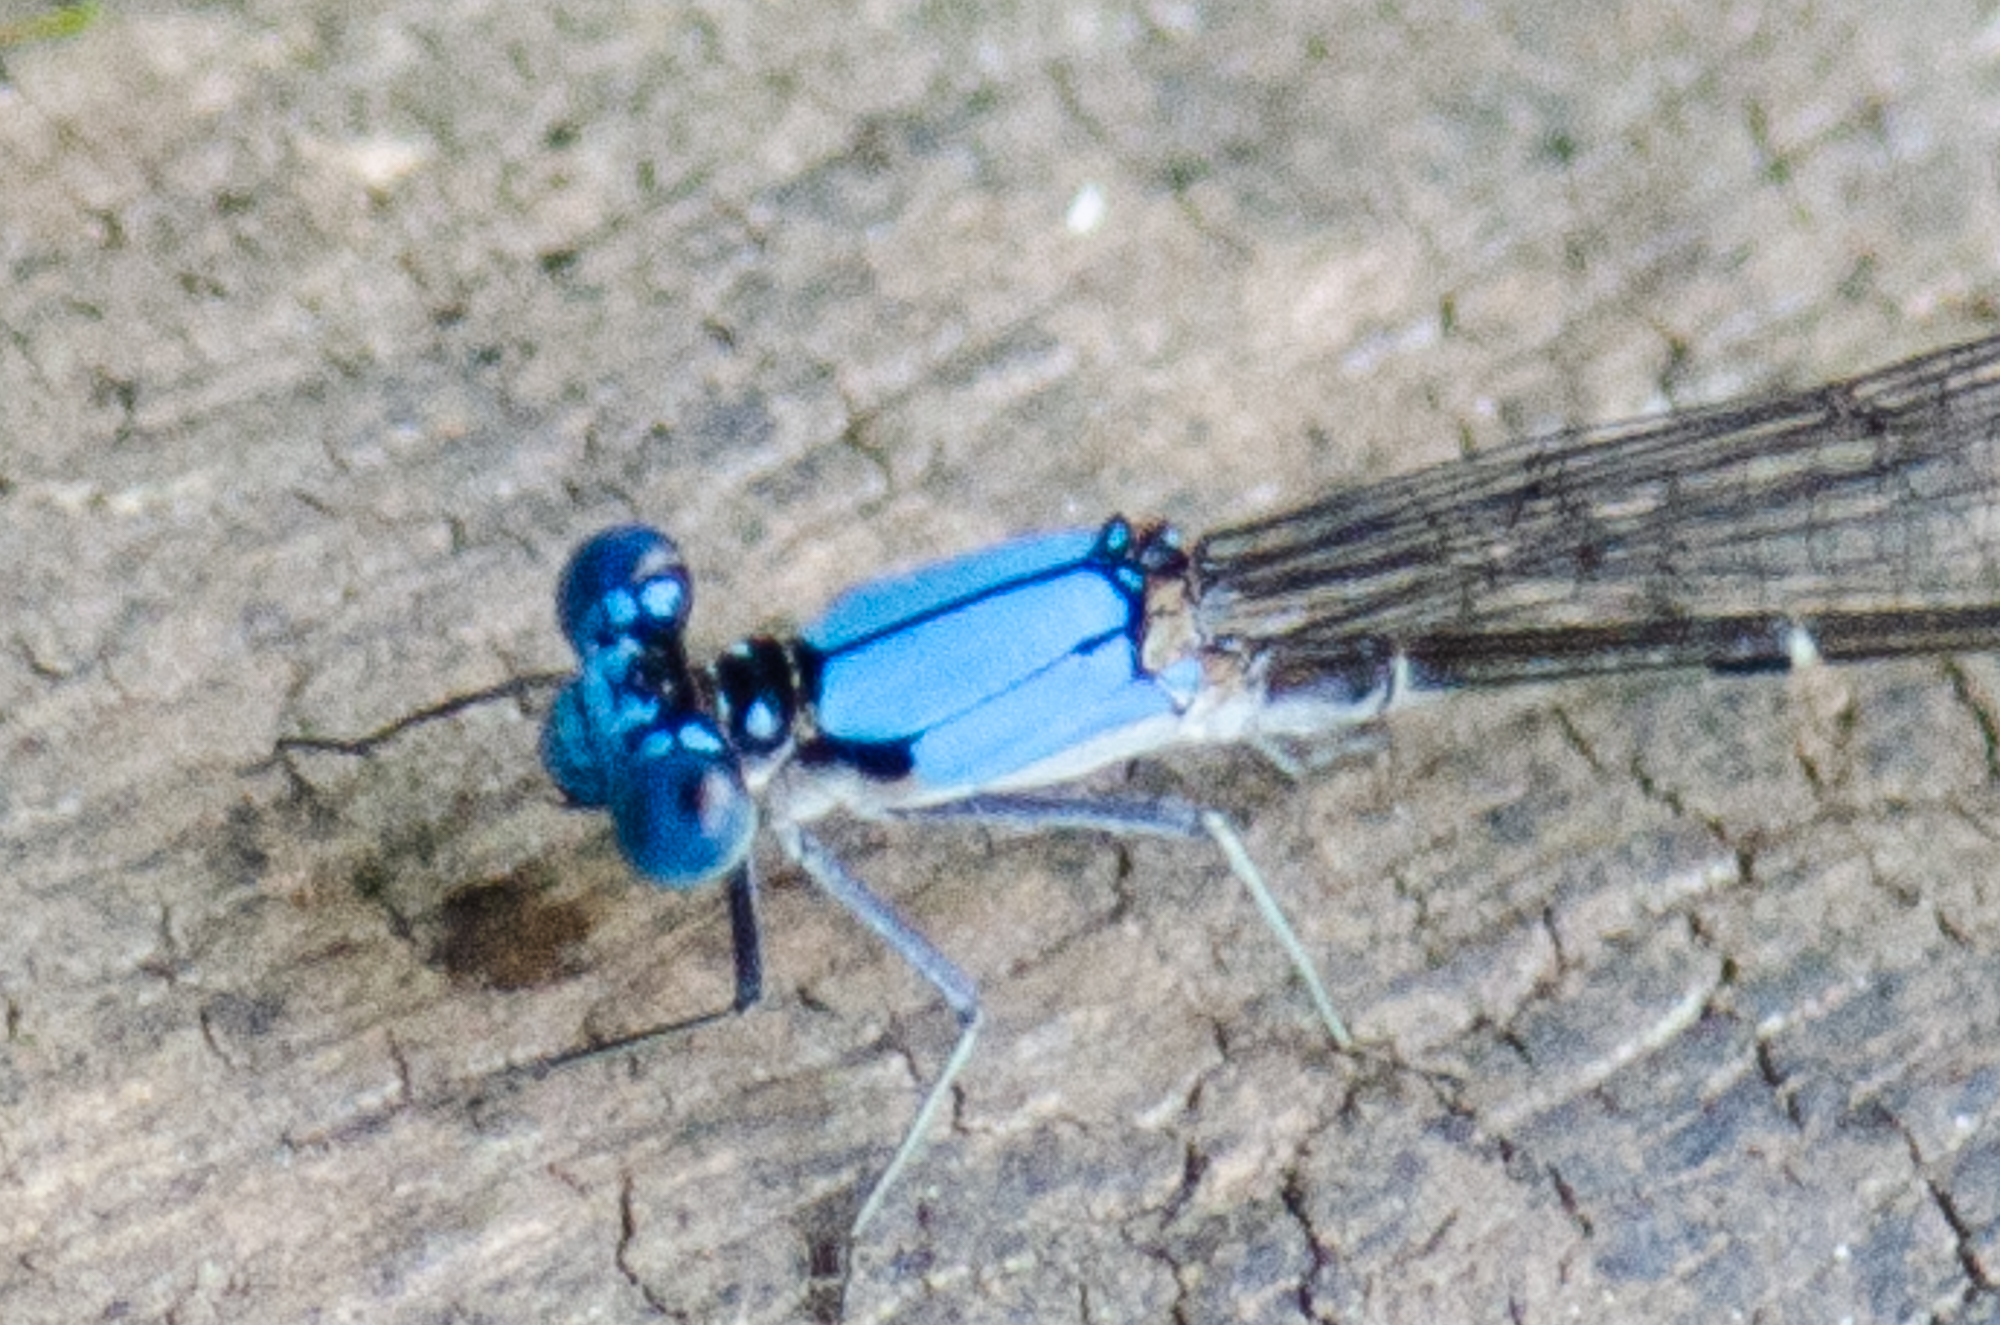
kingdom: Animalia
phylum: Arthropoda
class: Insecta
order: Odonata
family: Coenagrionidae
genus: Argia
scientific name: Argia apicalis
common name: Blue-fronted dancer
